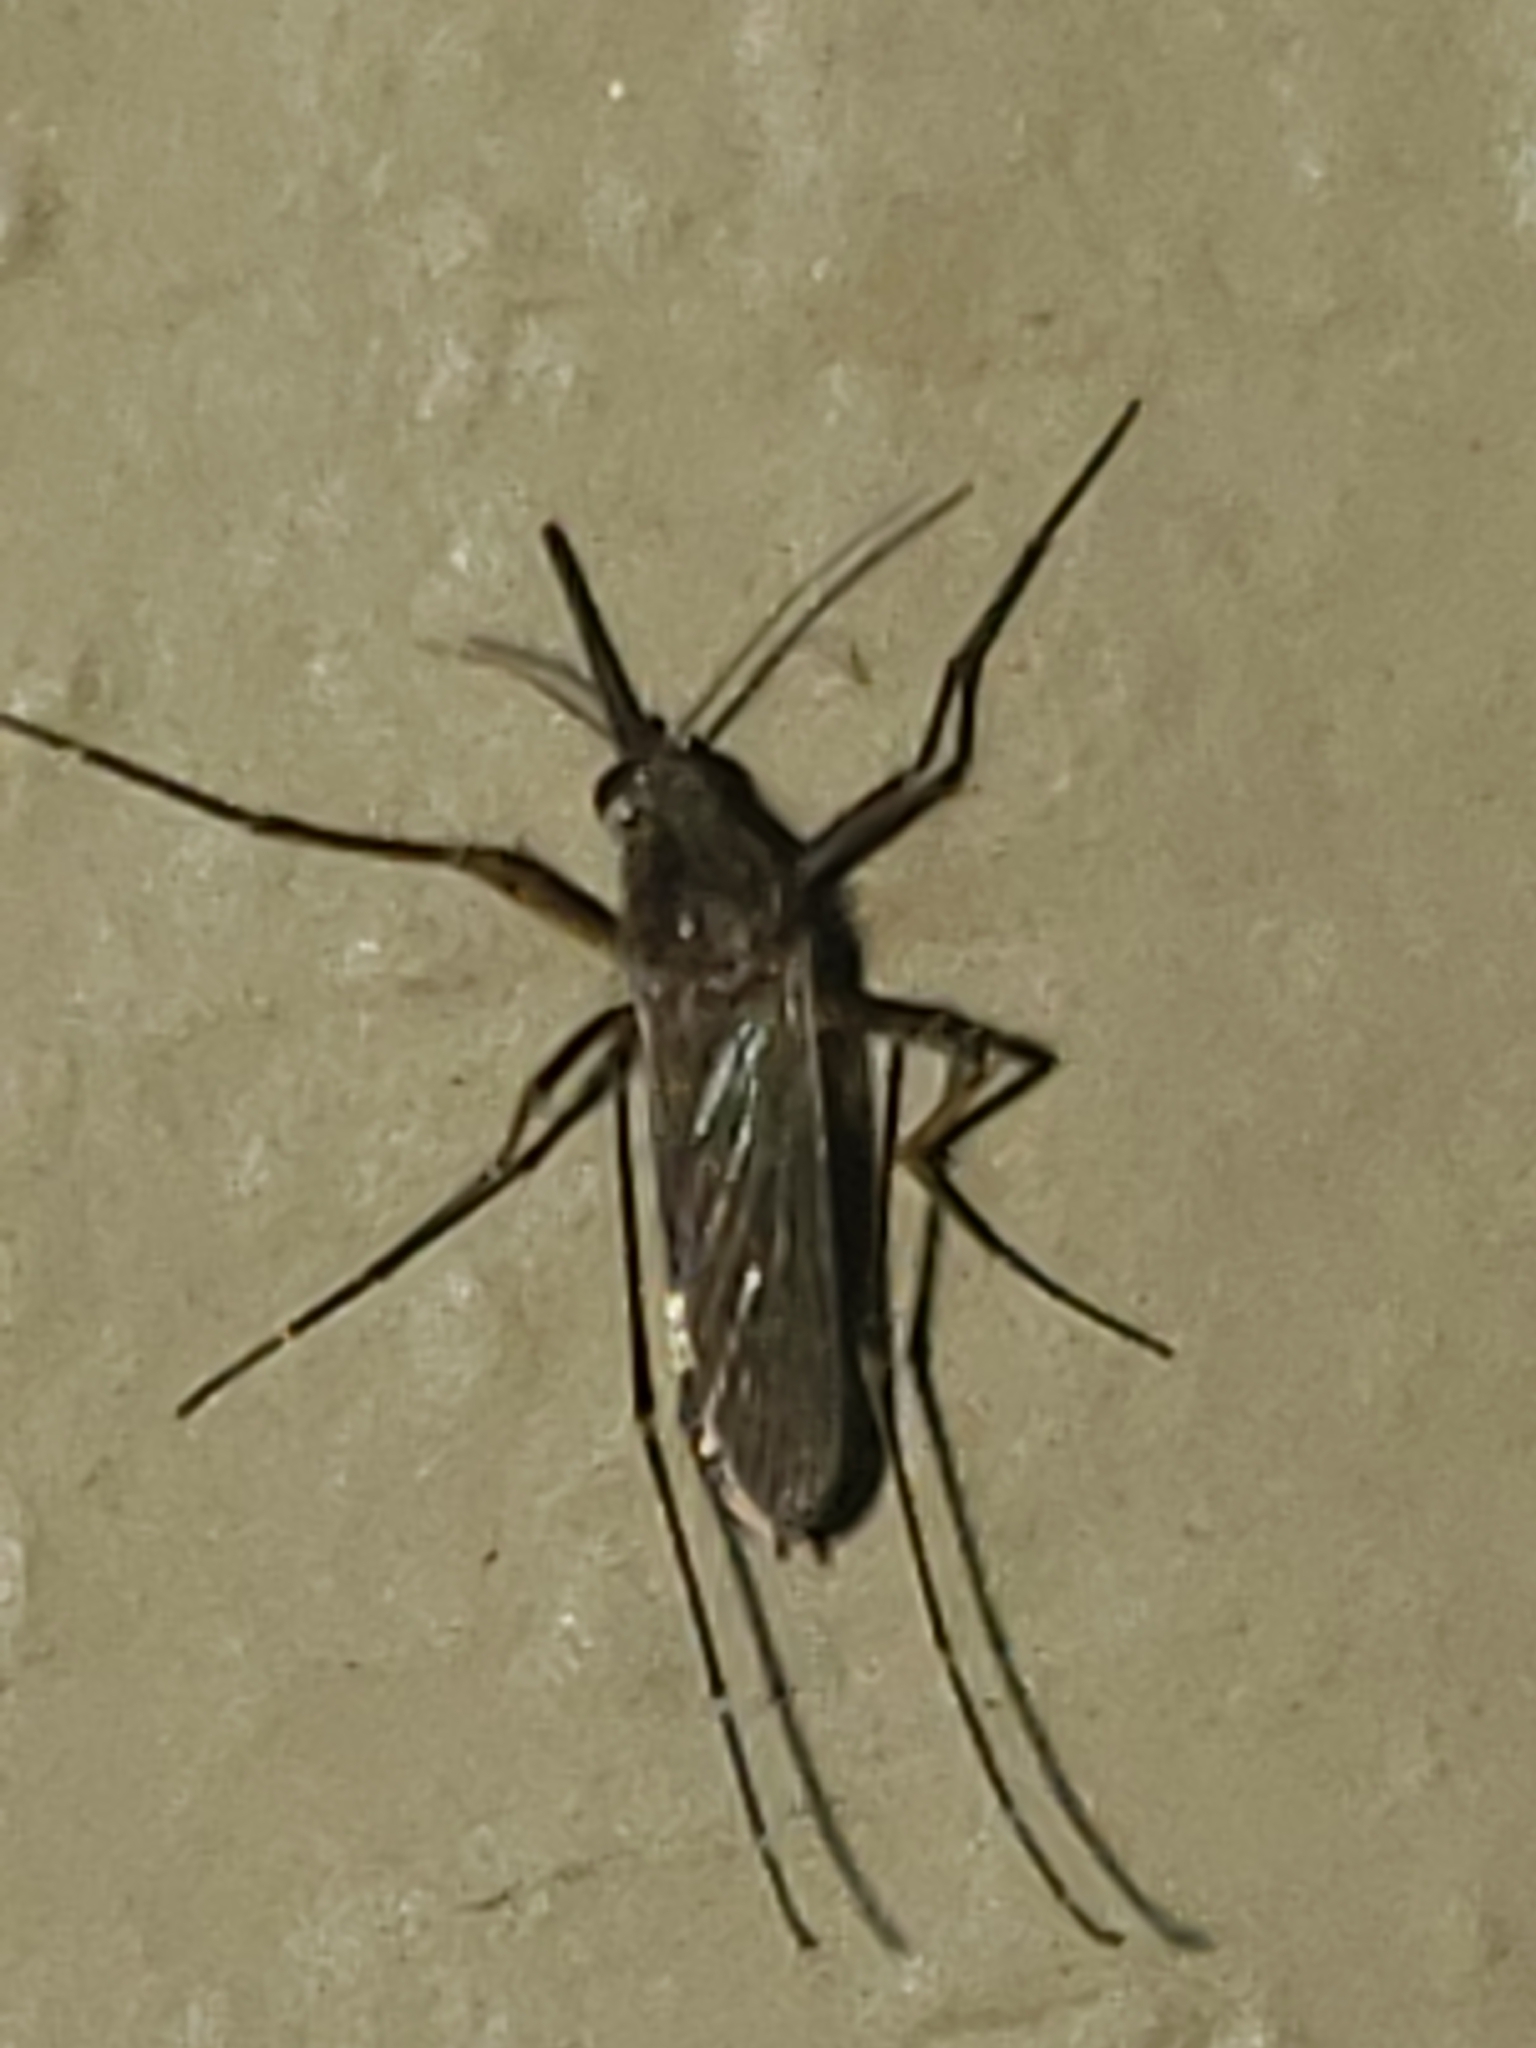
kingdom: Animalia
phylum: Arthropoda
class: Insecta
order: Diptera
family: Culicidae
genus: Aedes
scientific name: Aedes vexans
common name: Inland floodwater mosquito
